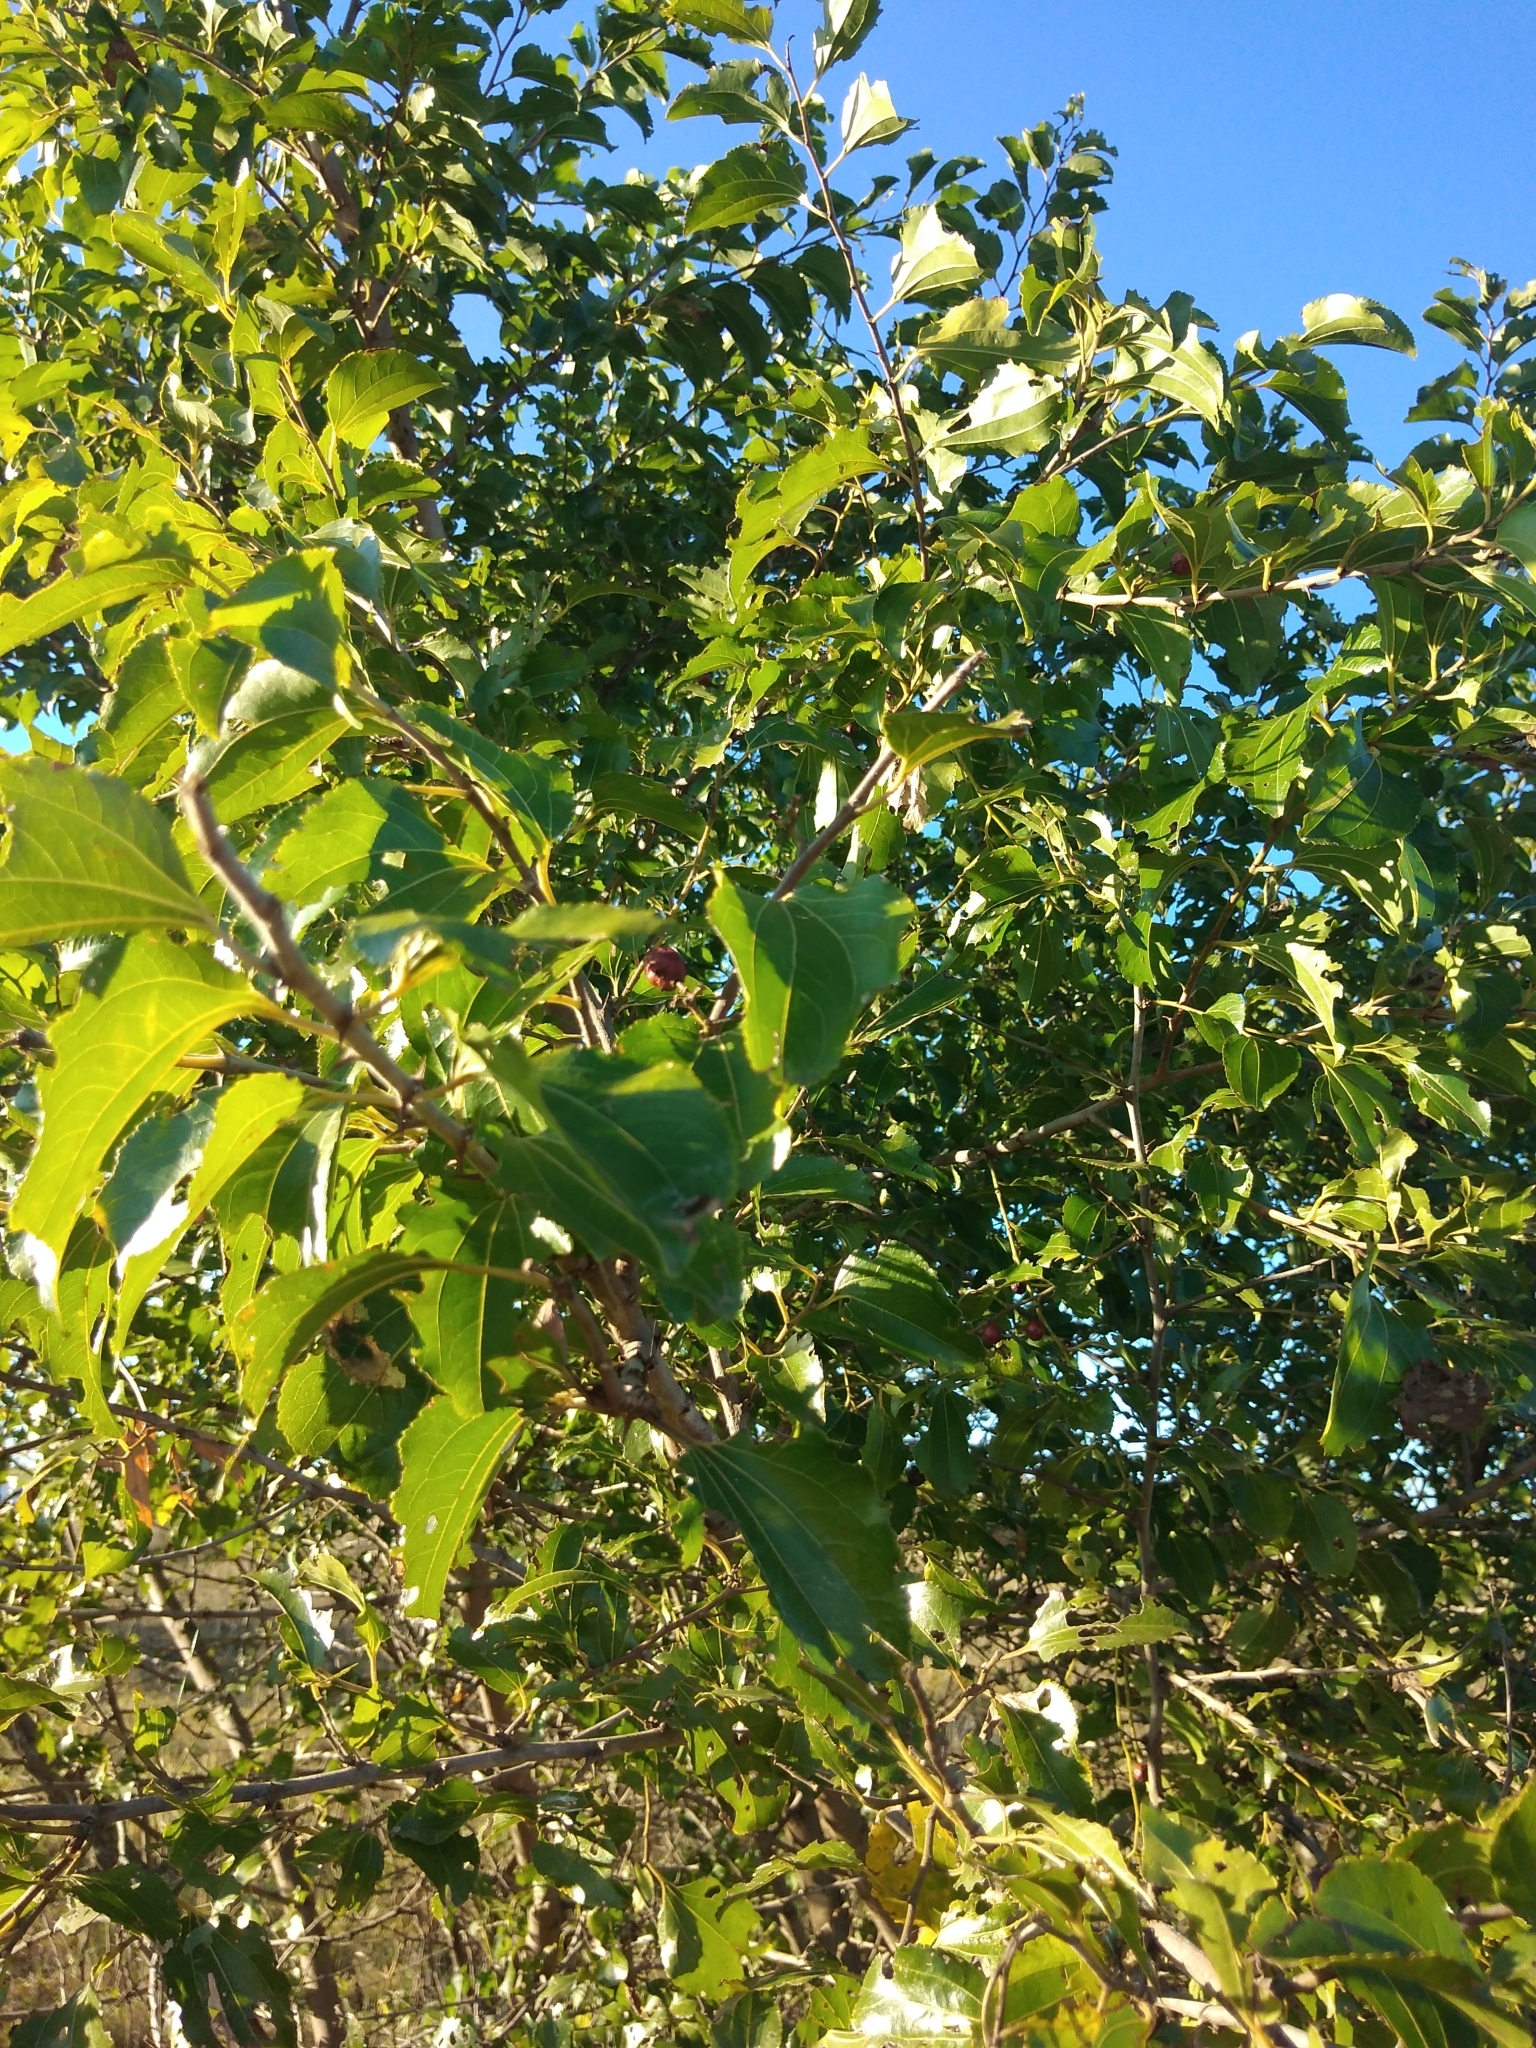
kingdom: Plantae
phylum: Tracheophyta
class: Magnoliopsida
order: Rosales
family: Rhamnaceae
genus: Ziziphus
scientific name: Ziziphus mucronata
